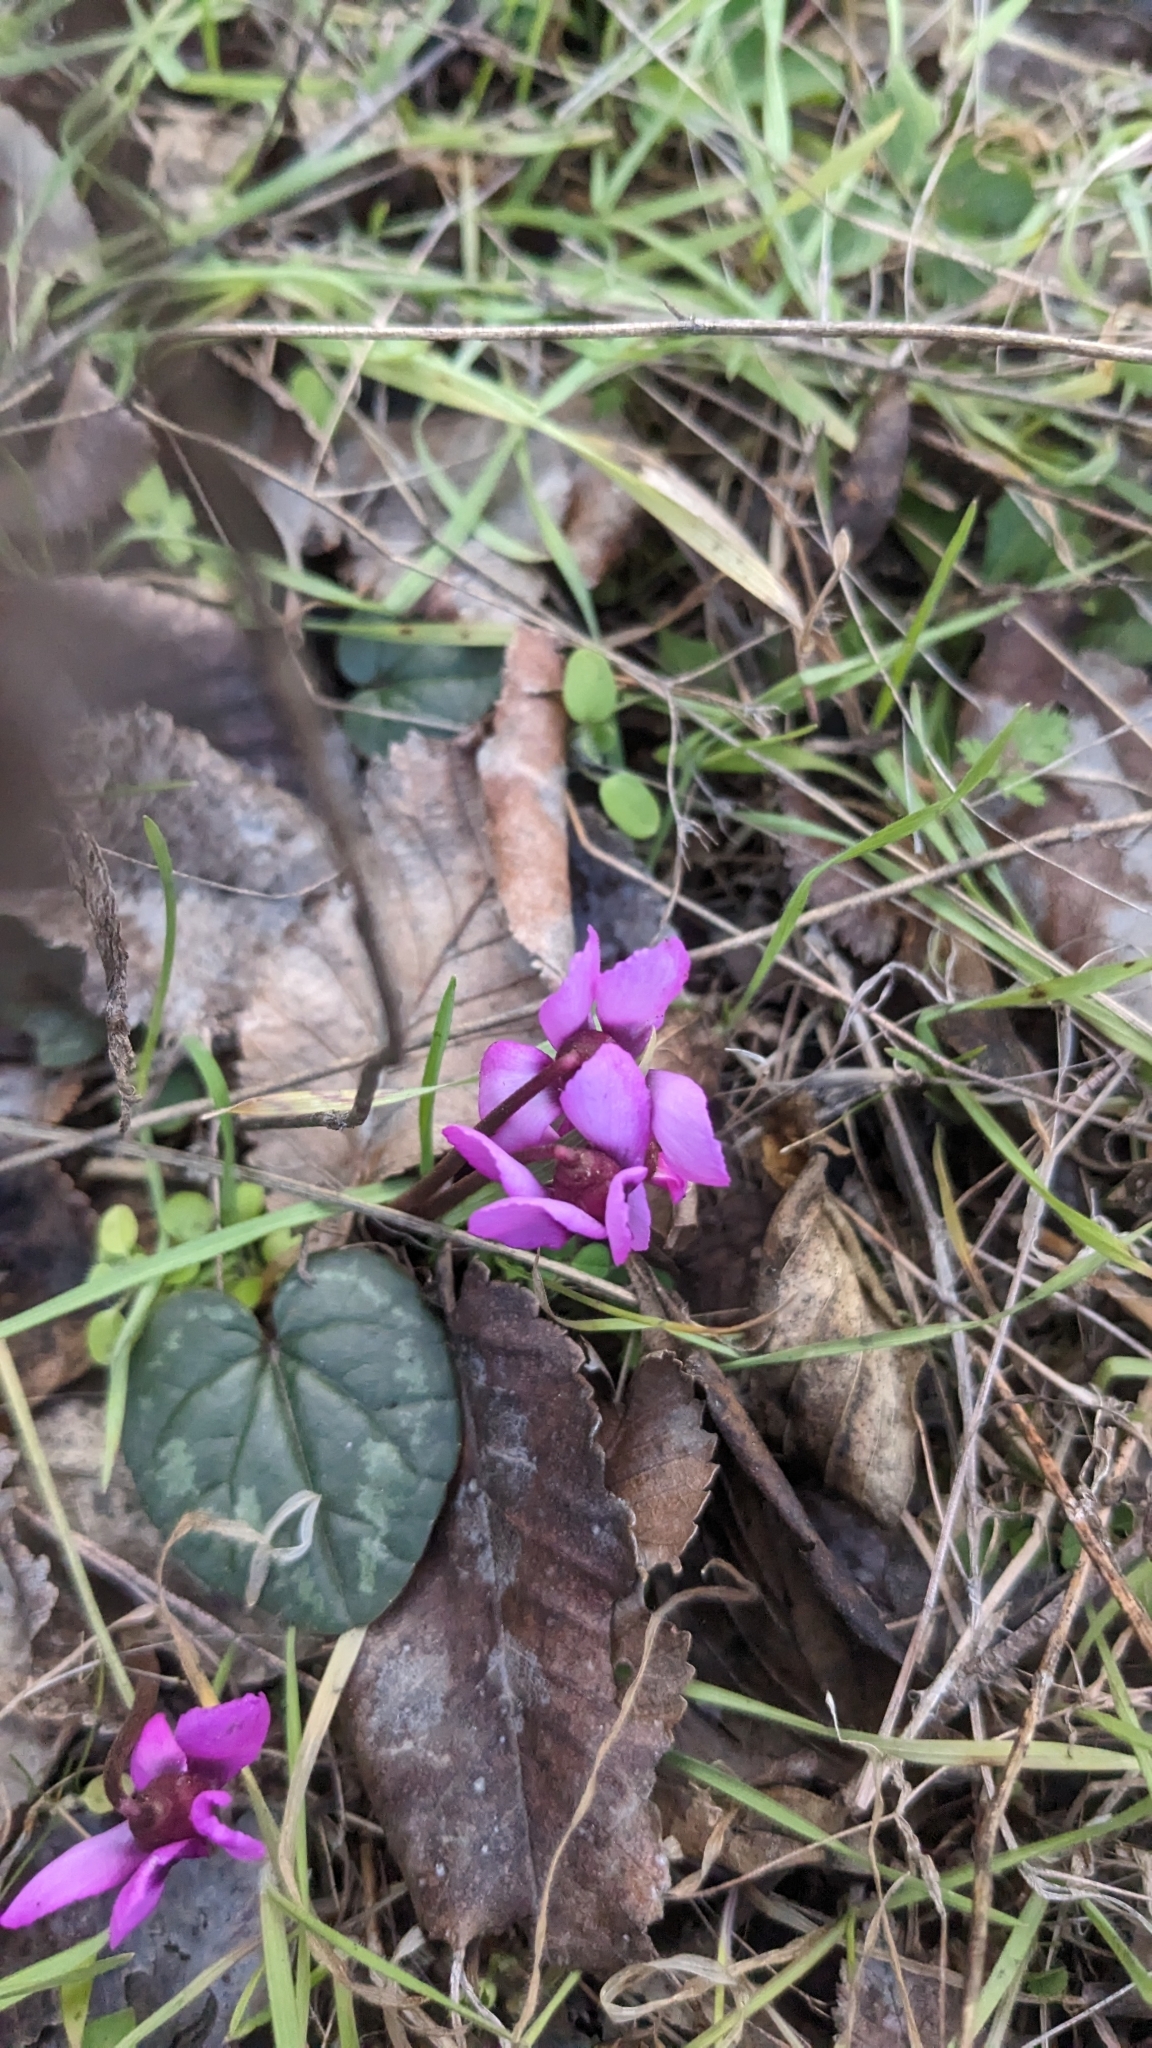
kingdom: Plantae
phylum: Tracheophyta
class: Magnoliopsida
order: Ericales
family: Primulaceae
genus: Cyclamen
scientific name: Cyclamen coum
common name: Eastern sowbread
